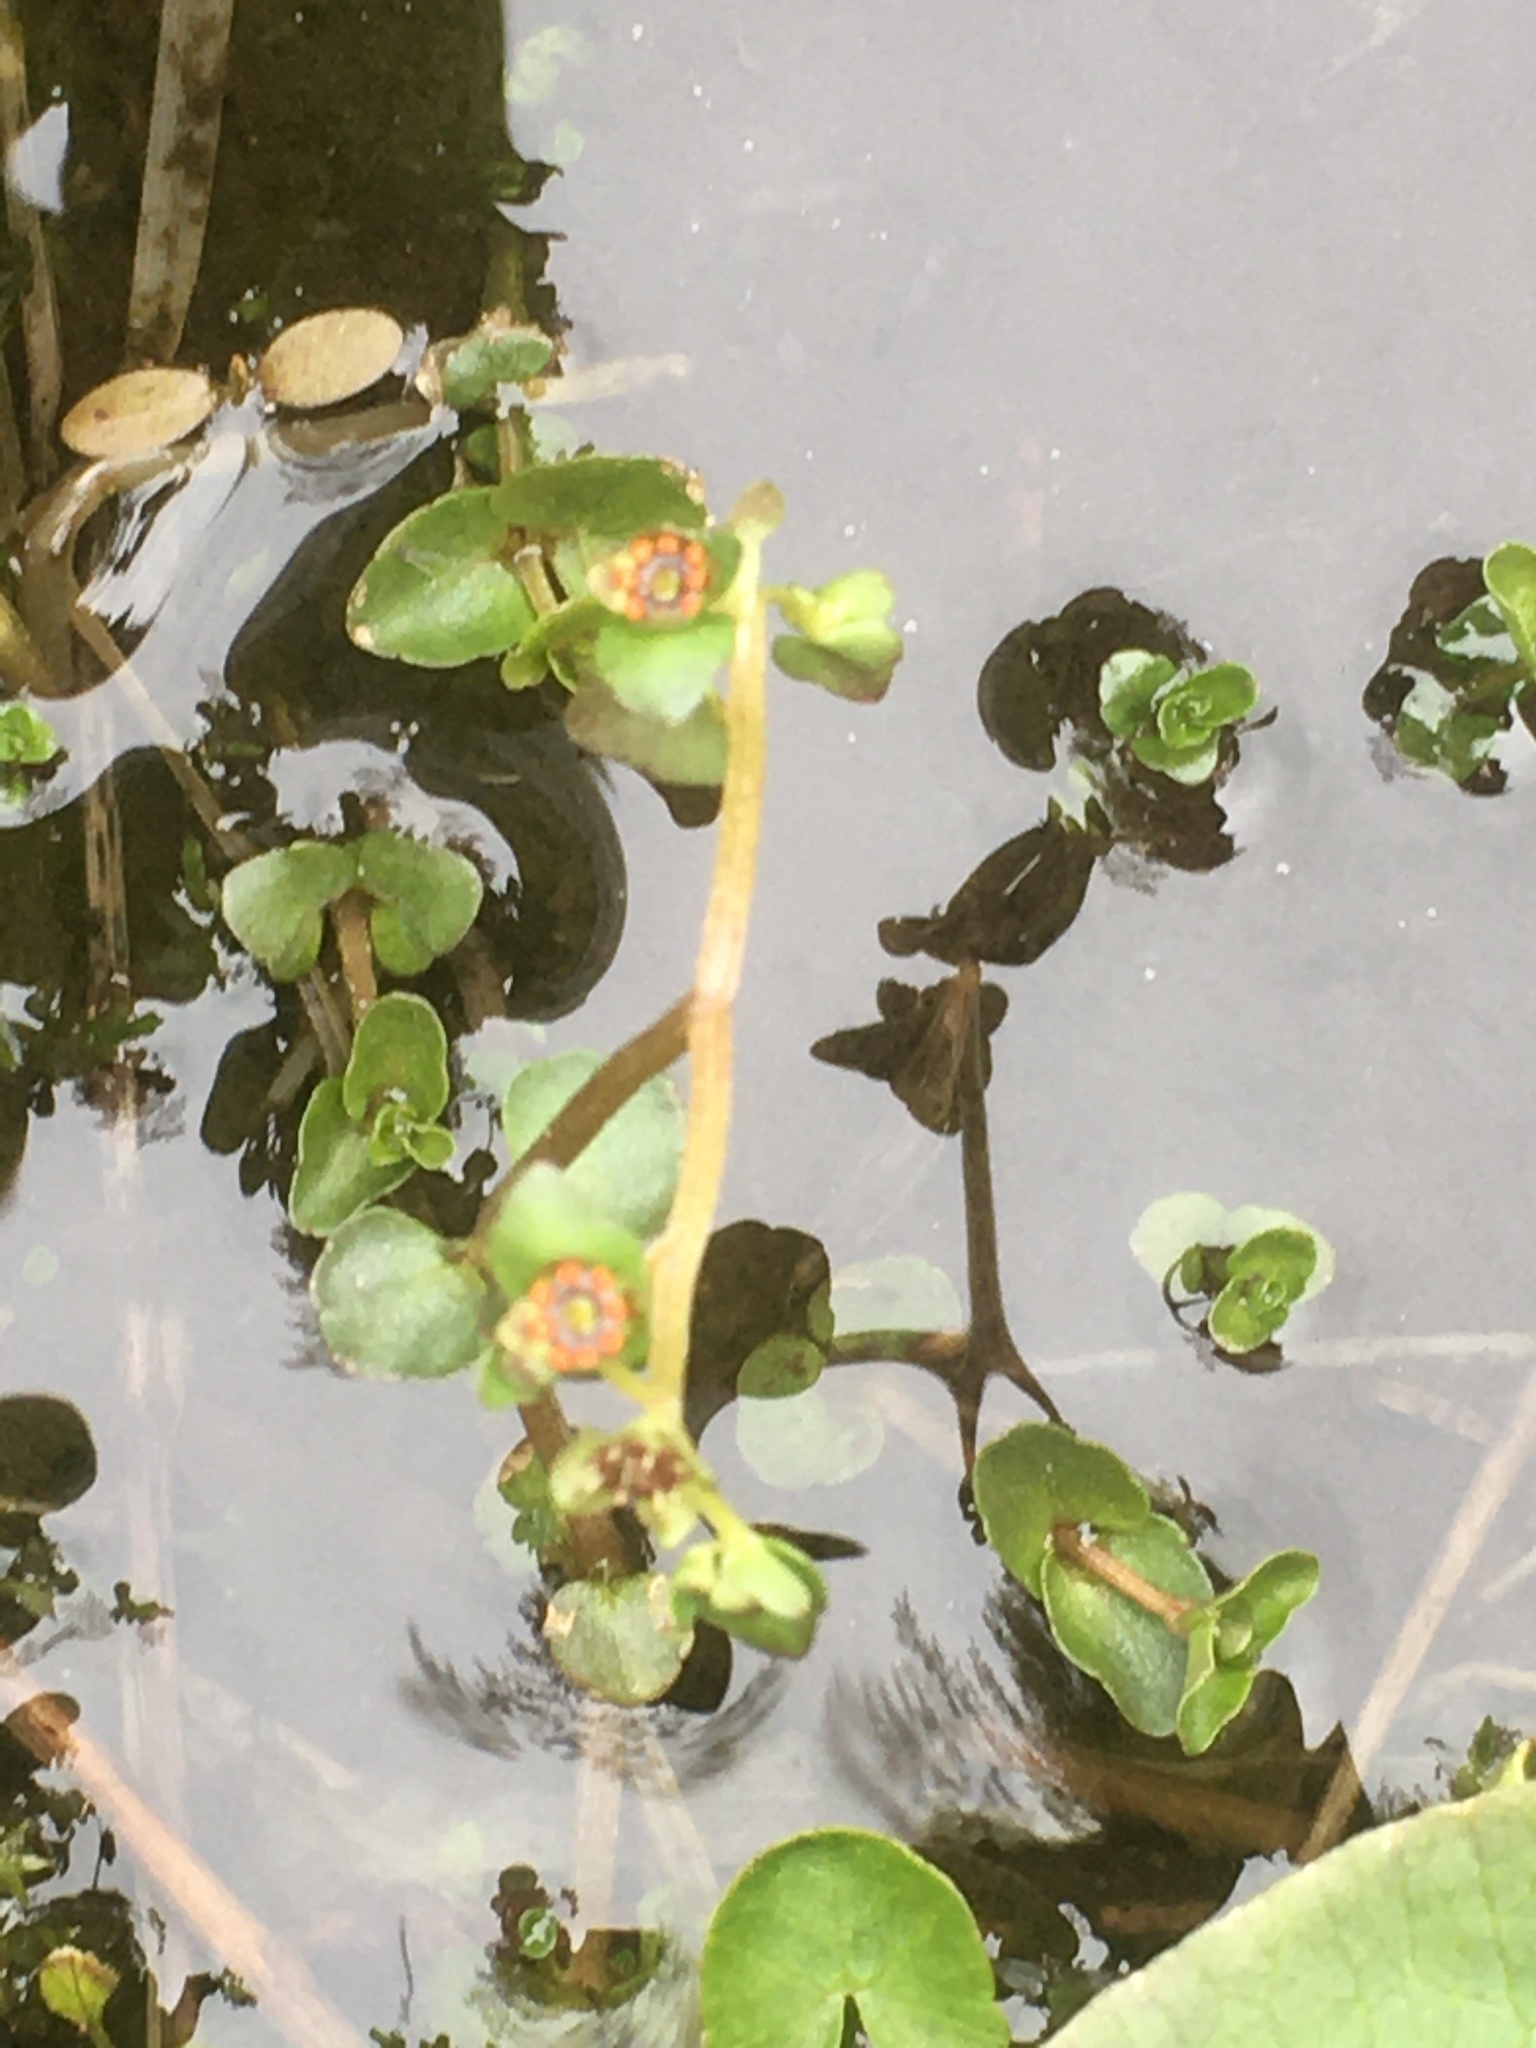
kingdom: Plantae
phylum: Tracheophyta
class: Magnoliopsida
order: Saxifragales
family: Saxifragaceae
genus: Chrysosplenium
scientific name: Chrysosplenium americanum
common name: American golden-saxifrage
